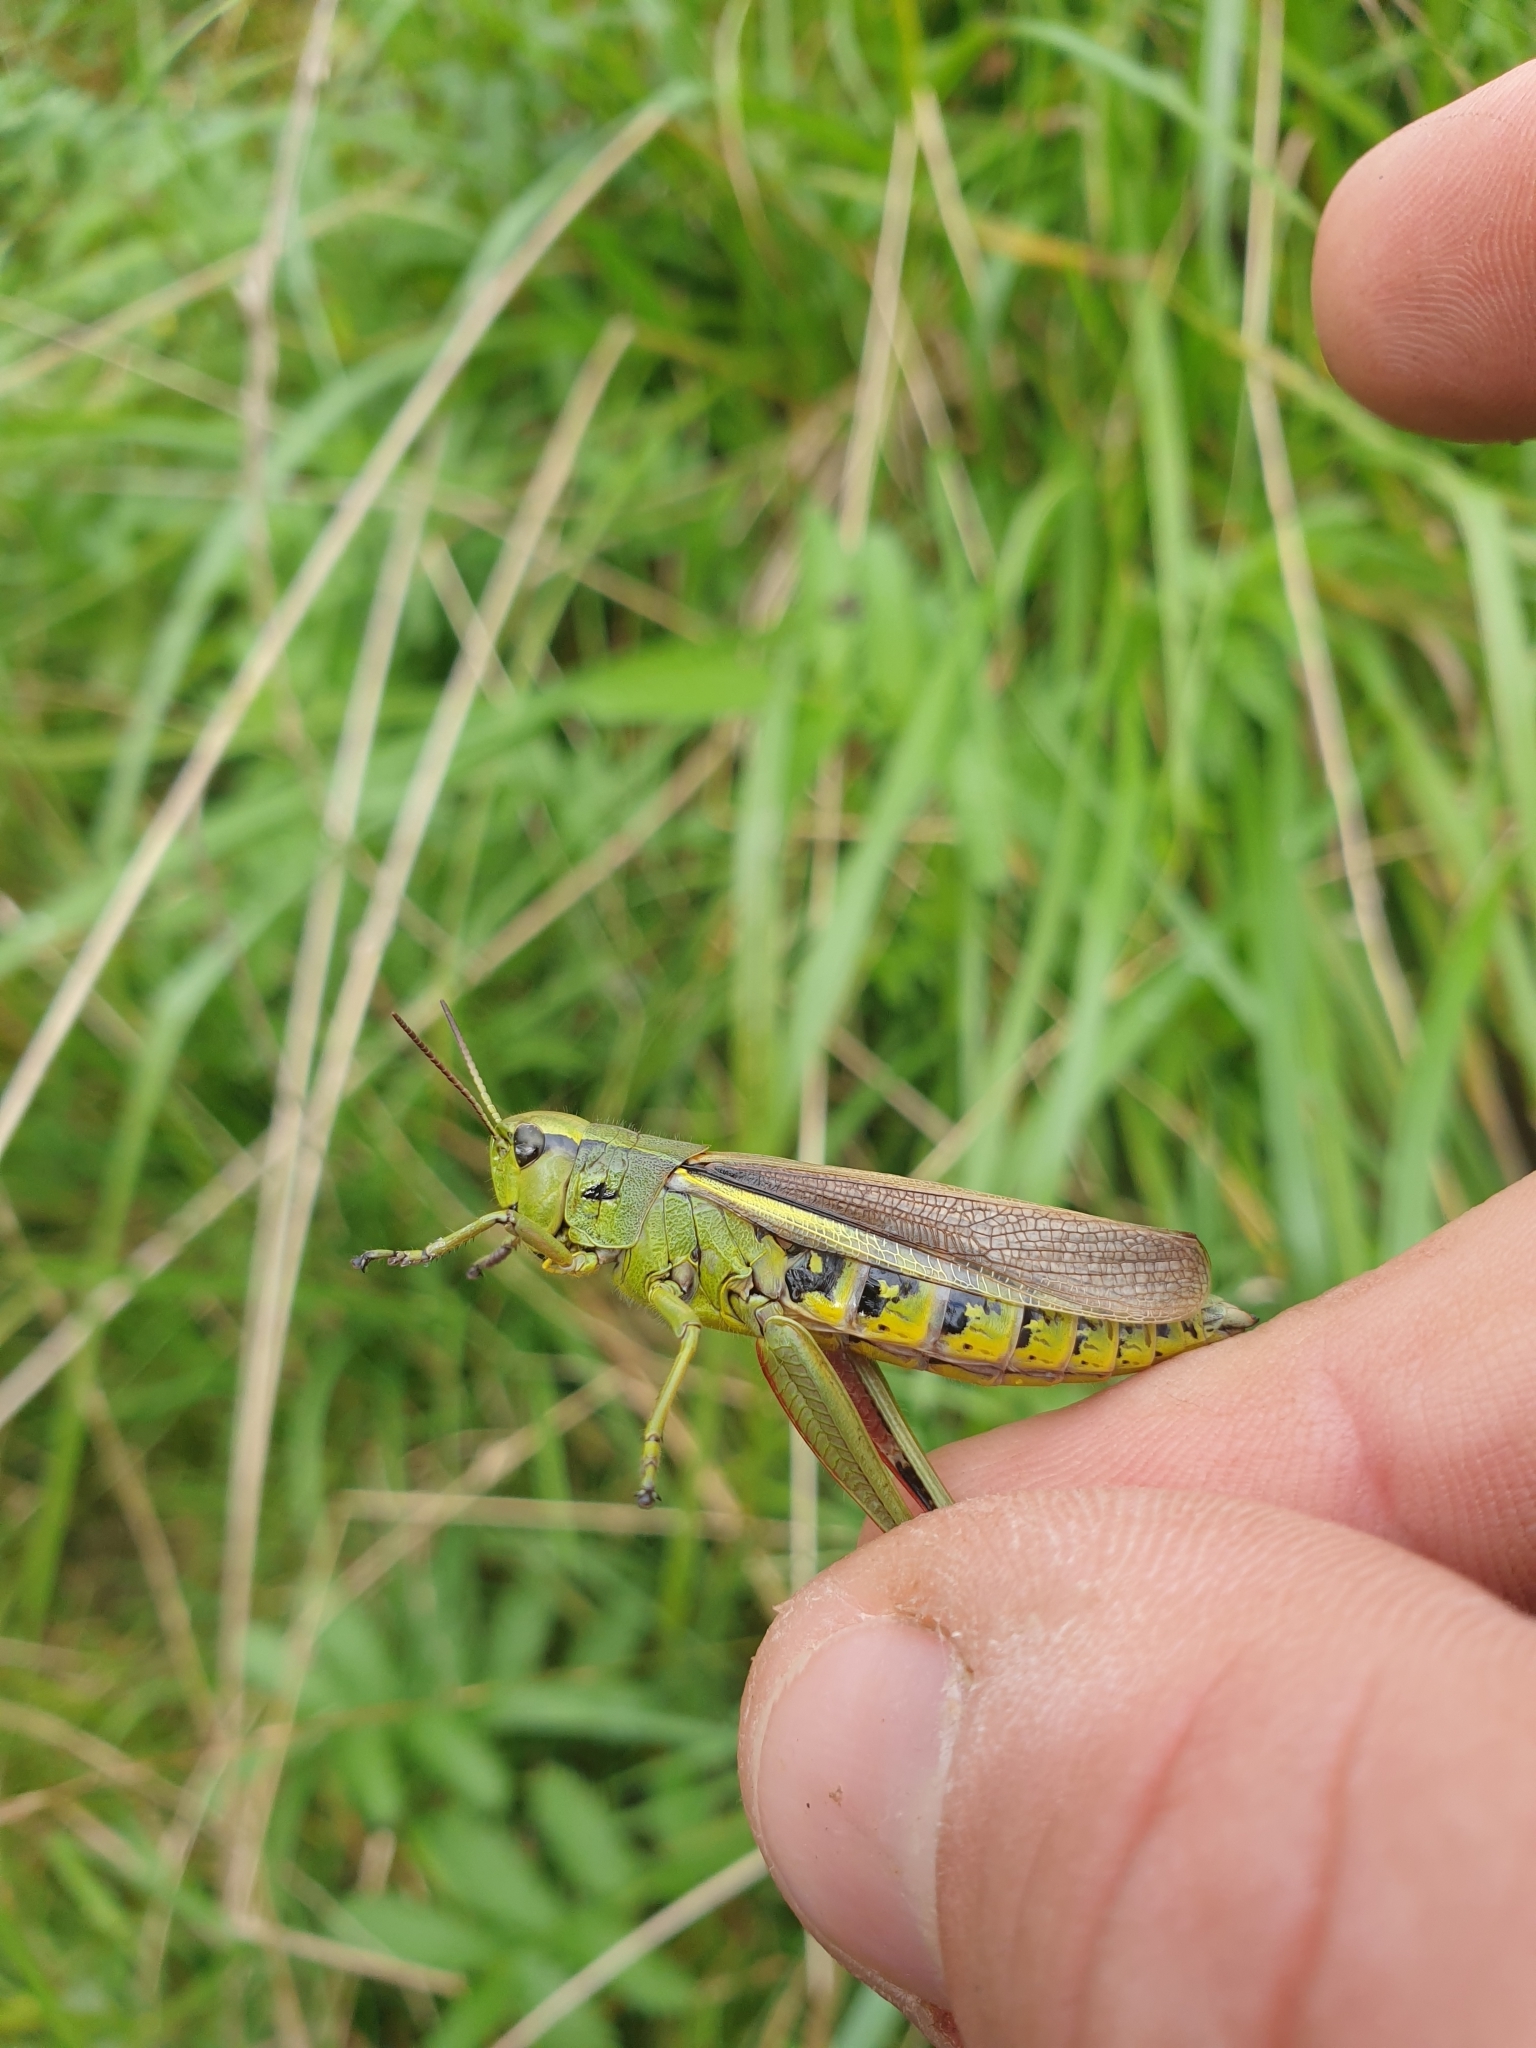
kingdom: Animalia
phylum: Arthropoda
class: Insecta
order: Orthoptera
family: Acrididae
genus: Stethophyma
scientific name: Stethophyma grossum
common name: Large marsh grasshopper
